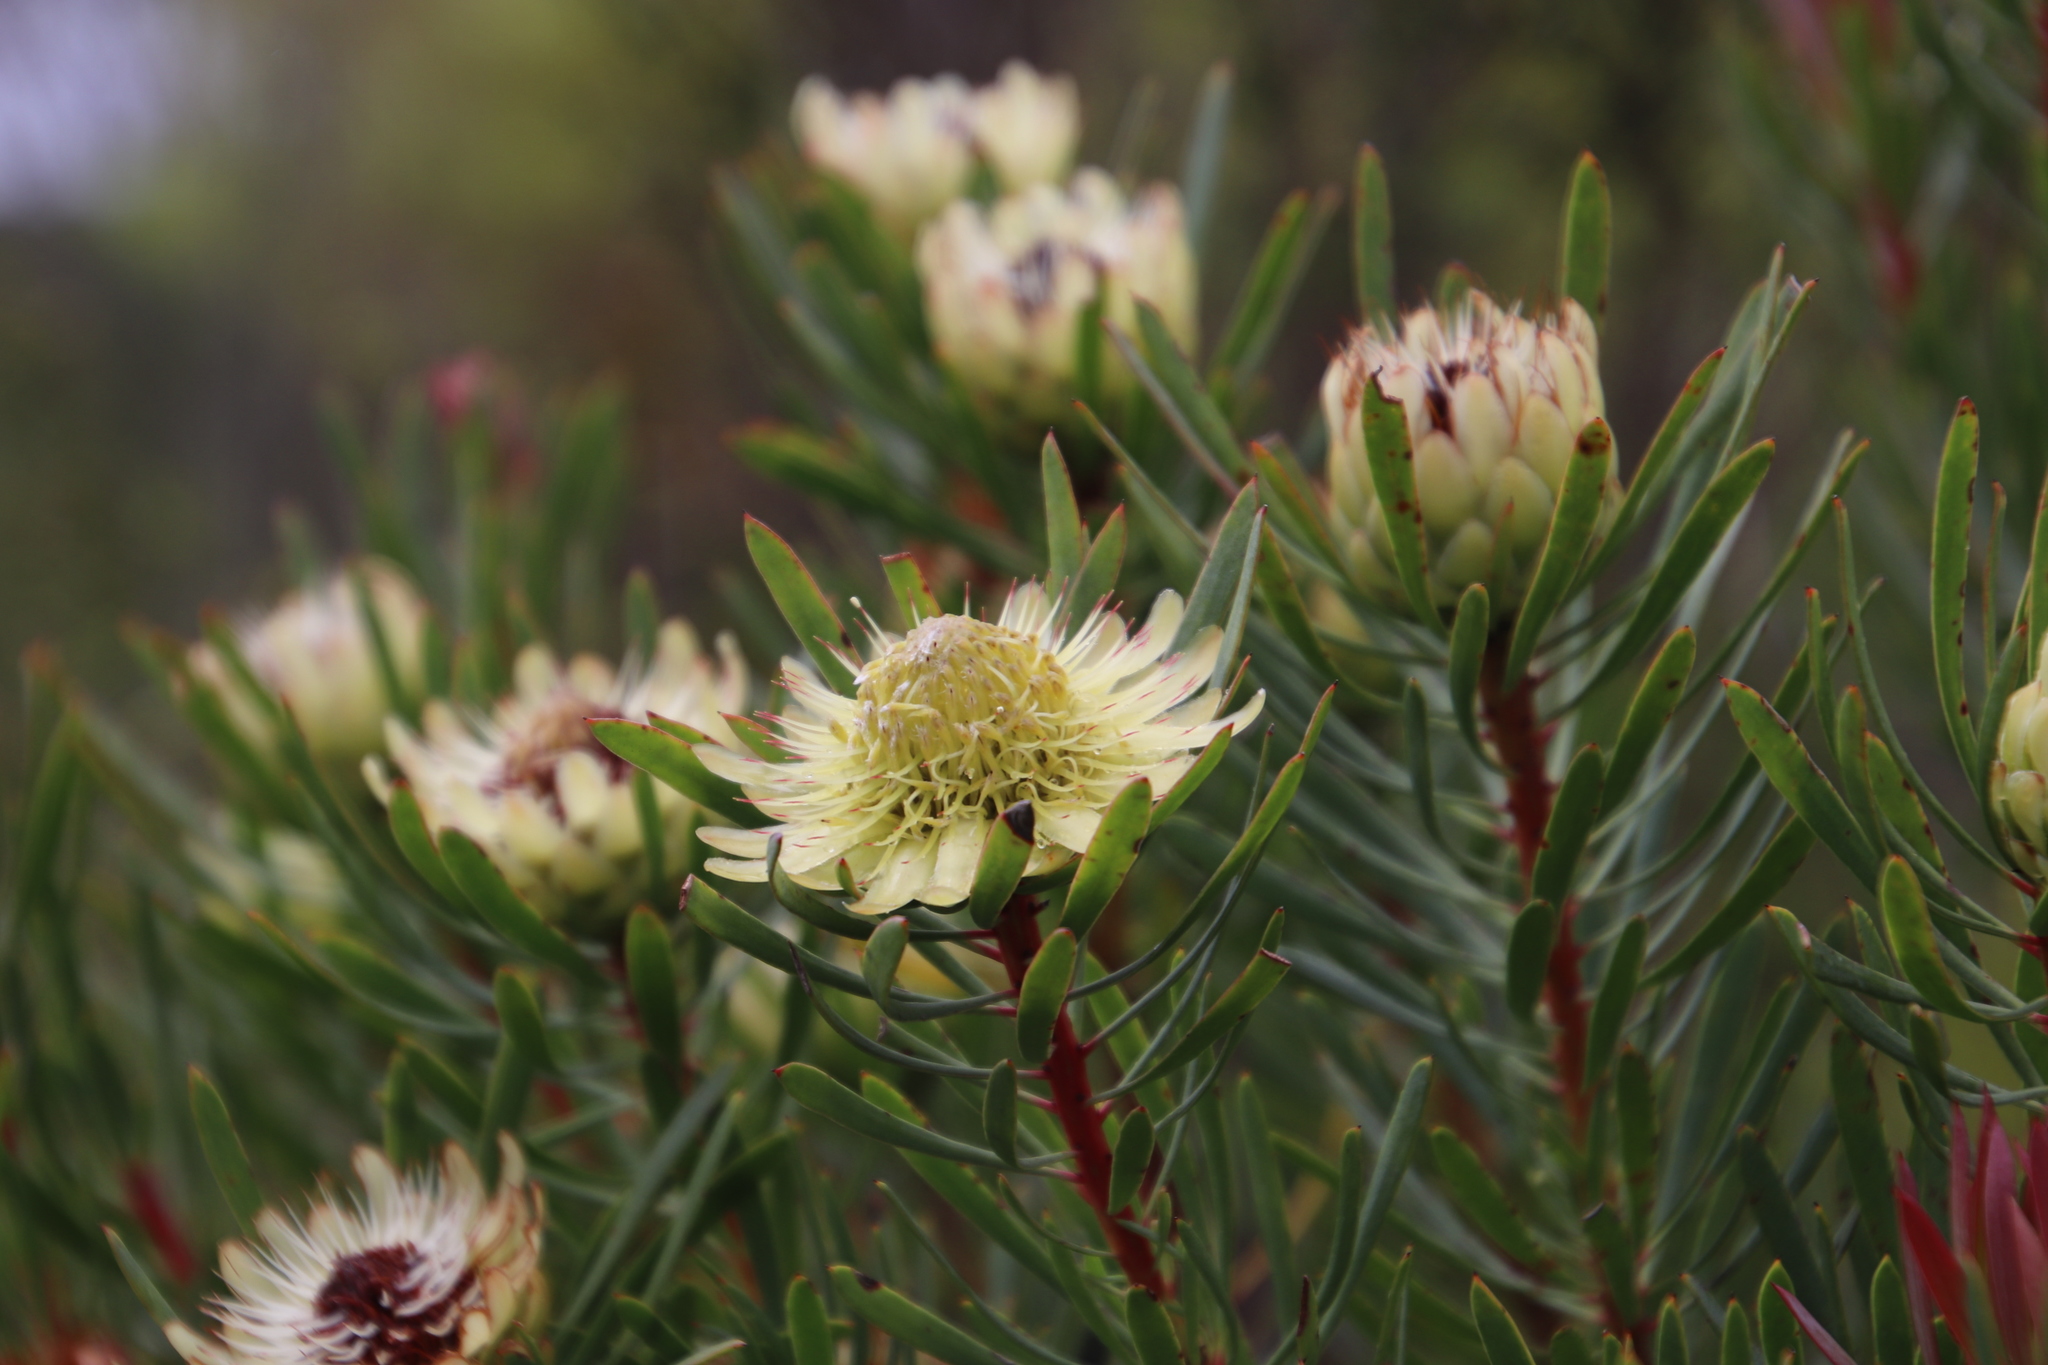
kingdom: Plantae
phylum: Tracheophyta
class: Magnoliopsida
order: Proteales
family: Proteaceae
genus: Protea
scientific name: Protea scolymocephala
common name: Thistle sugarbush
